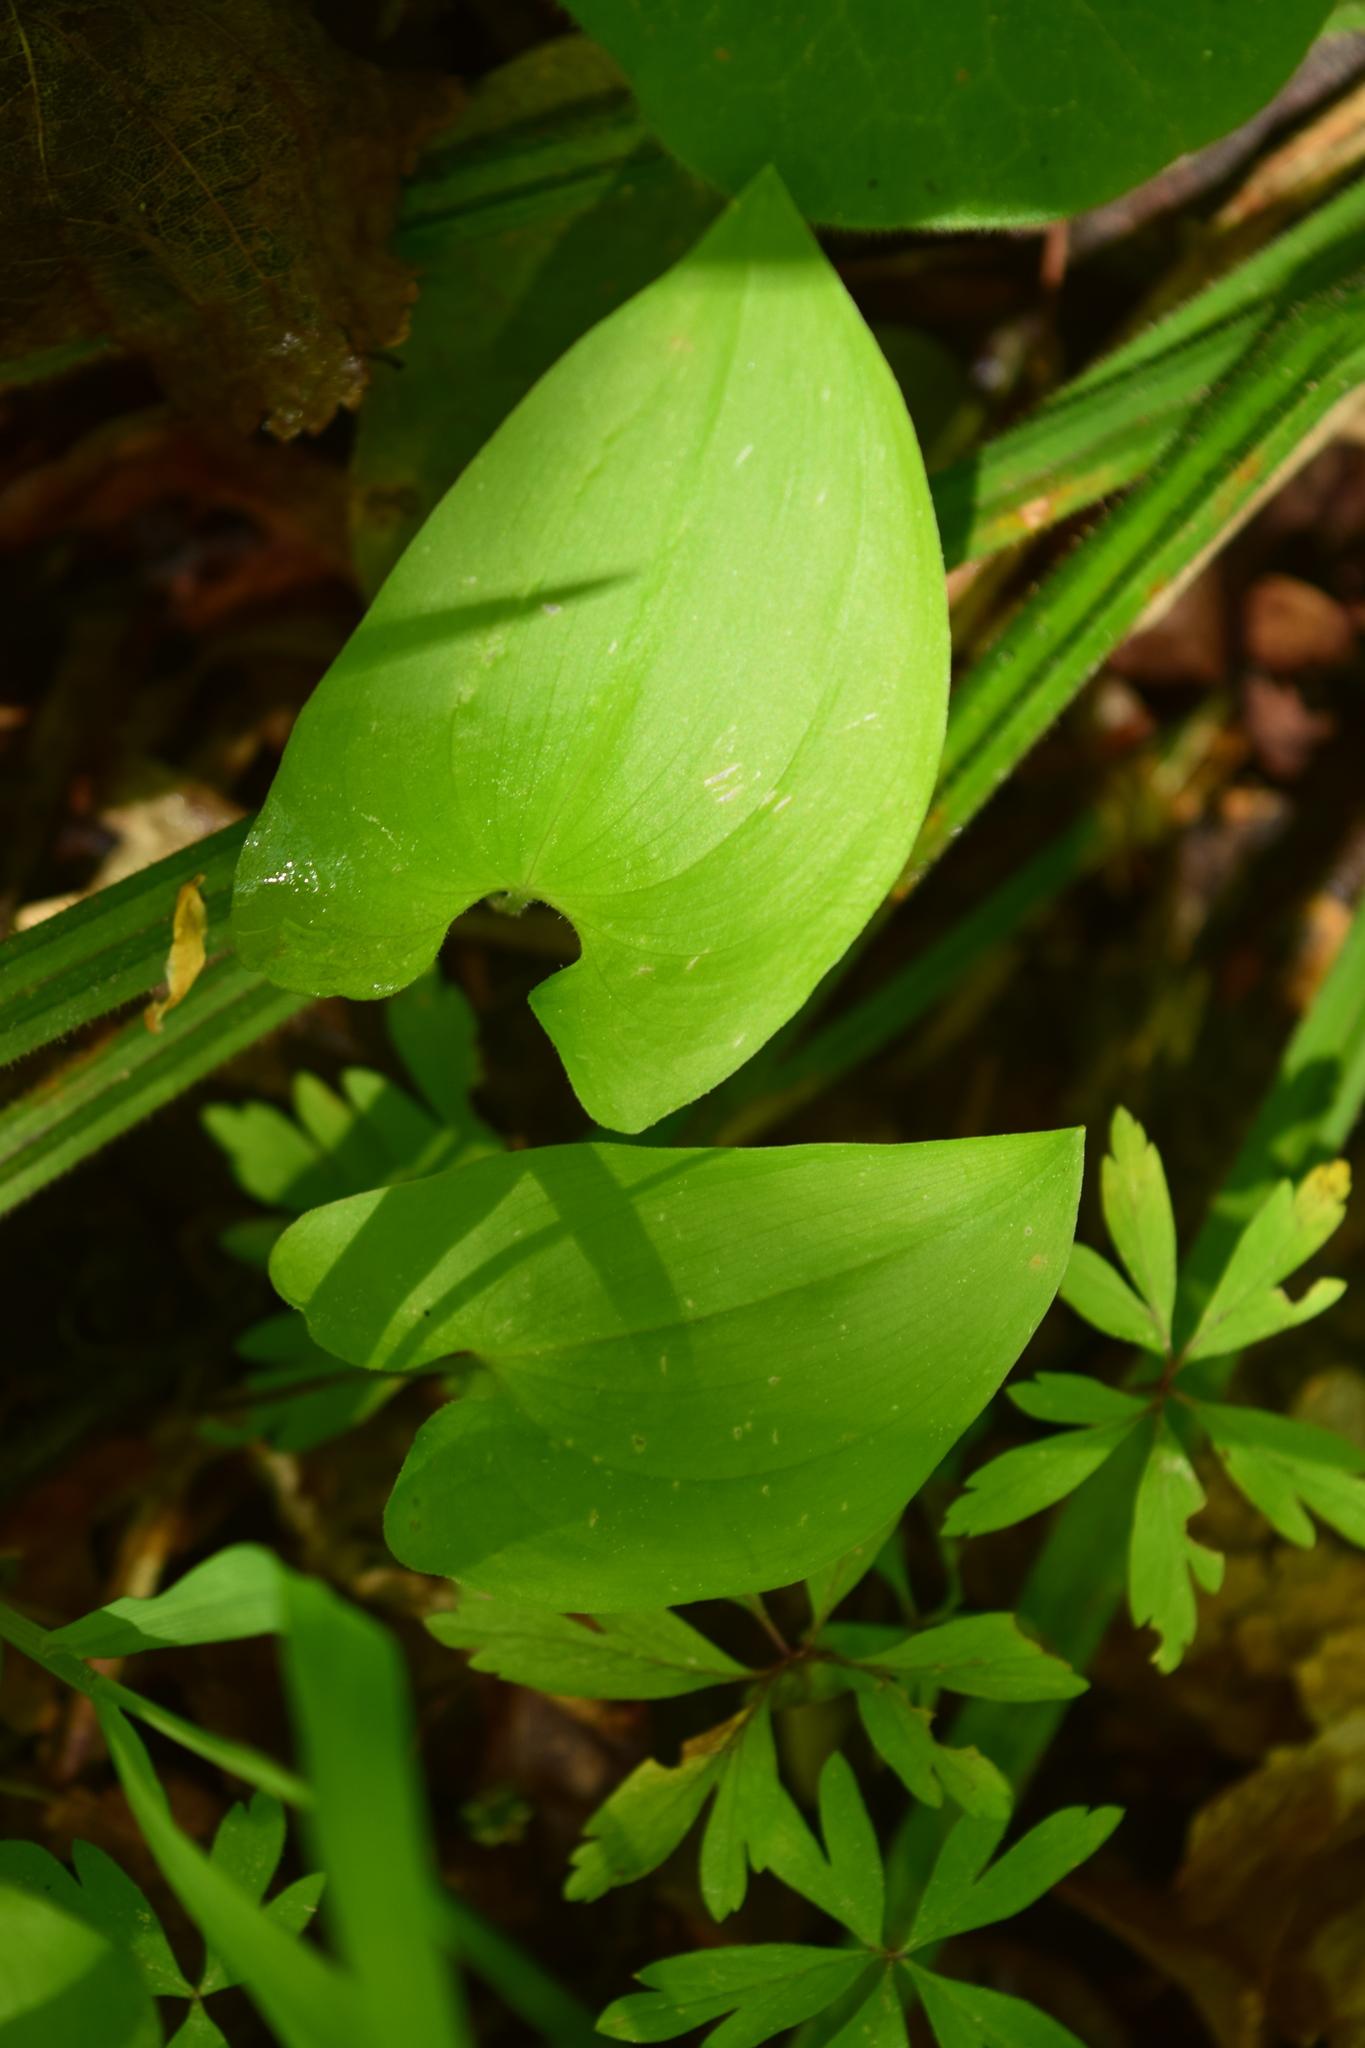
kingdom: Plantae
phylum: Tracheophyta
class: Liliopsida
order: Asparagales
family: Asparagaceae
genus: Maianthemum
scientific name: Maianthemum bifolium
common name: May lily
